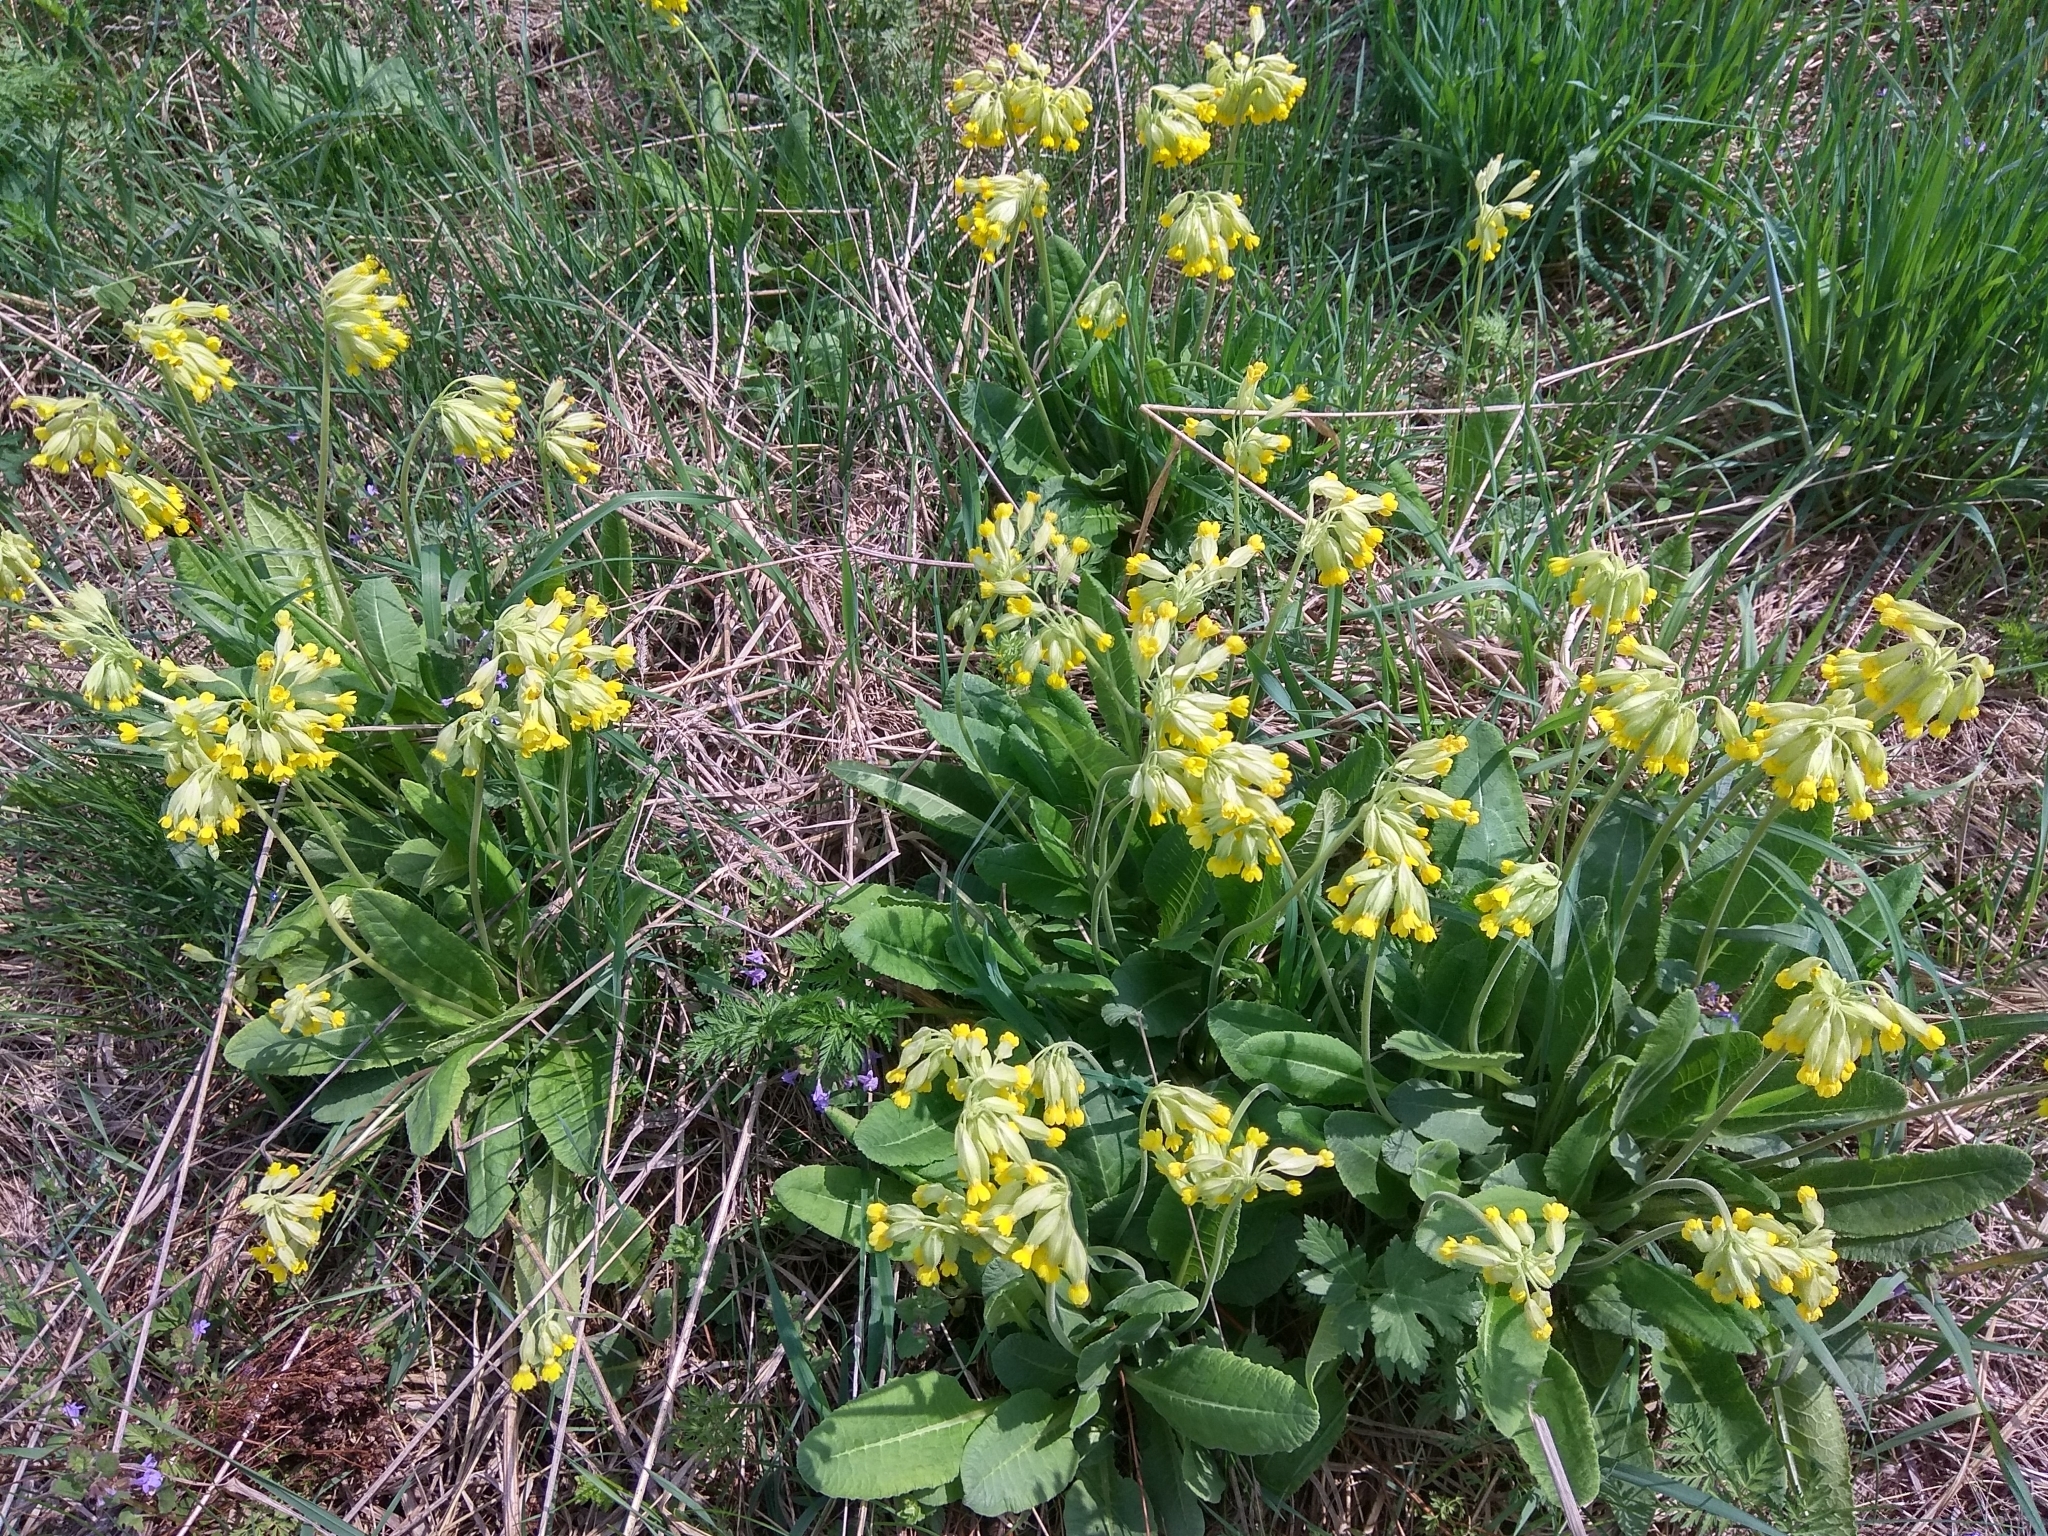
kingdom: Plantae
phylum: Tracheophyta
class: Magnoliopsida
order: Ericales
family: Primulaceae
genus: Primula
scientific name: Primula veris
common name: Cowslip
